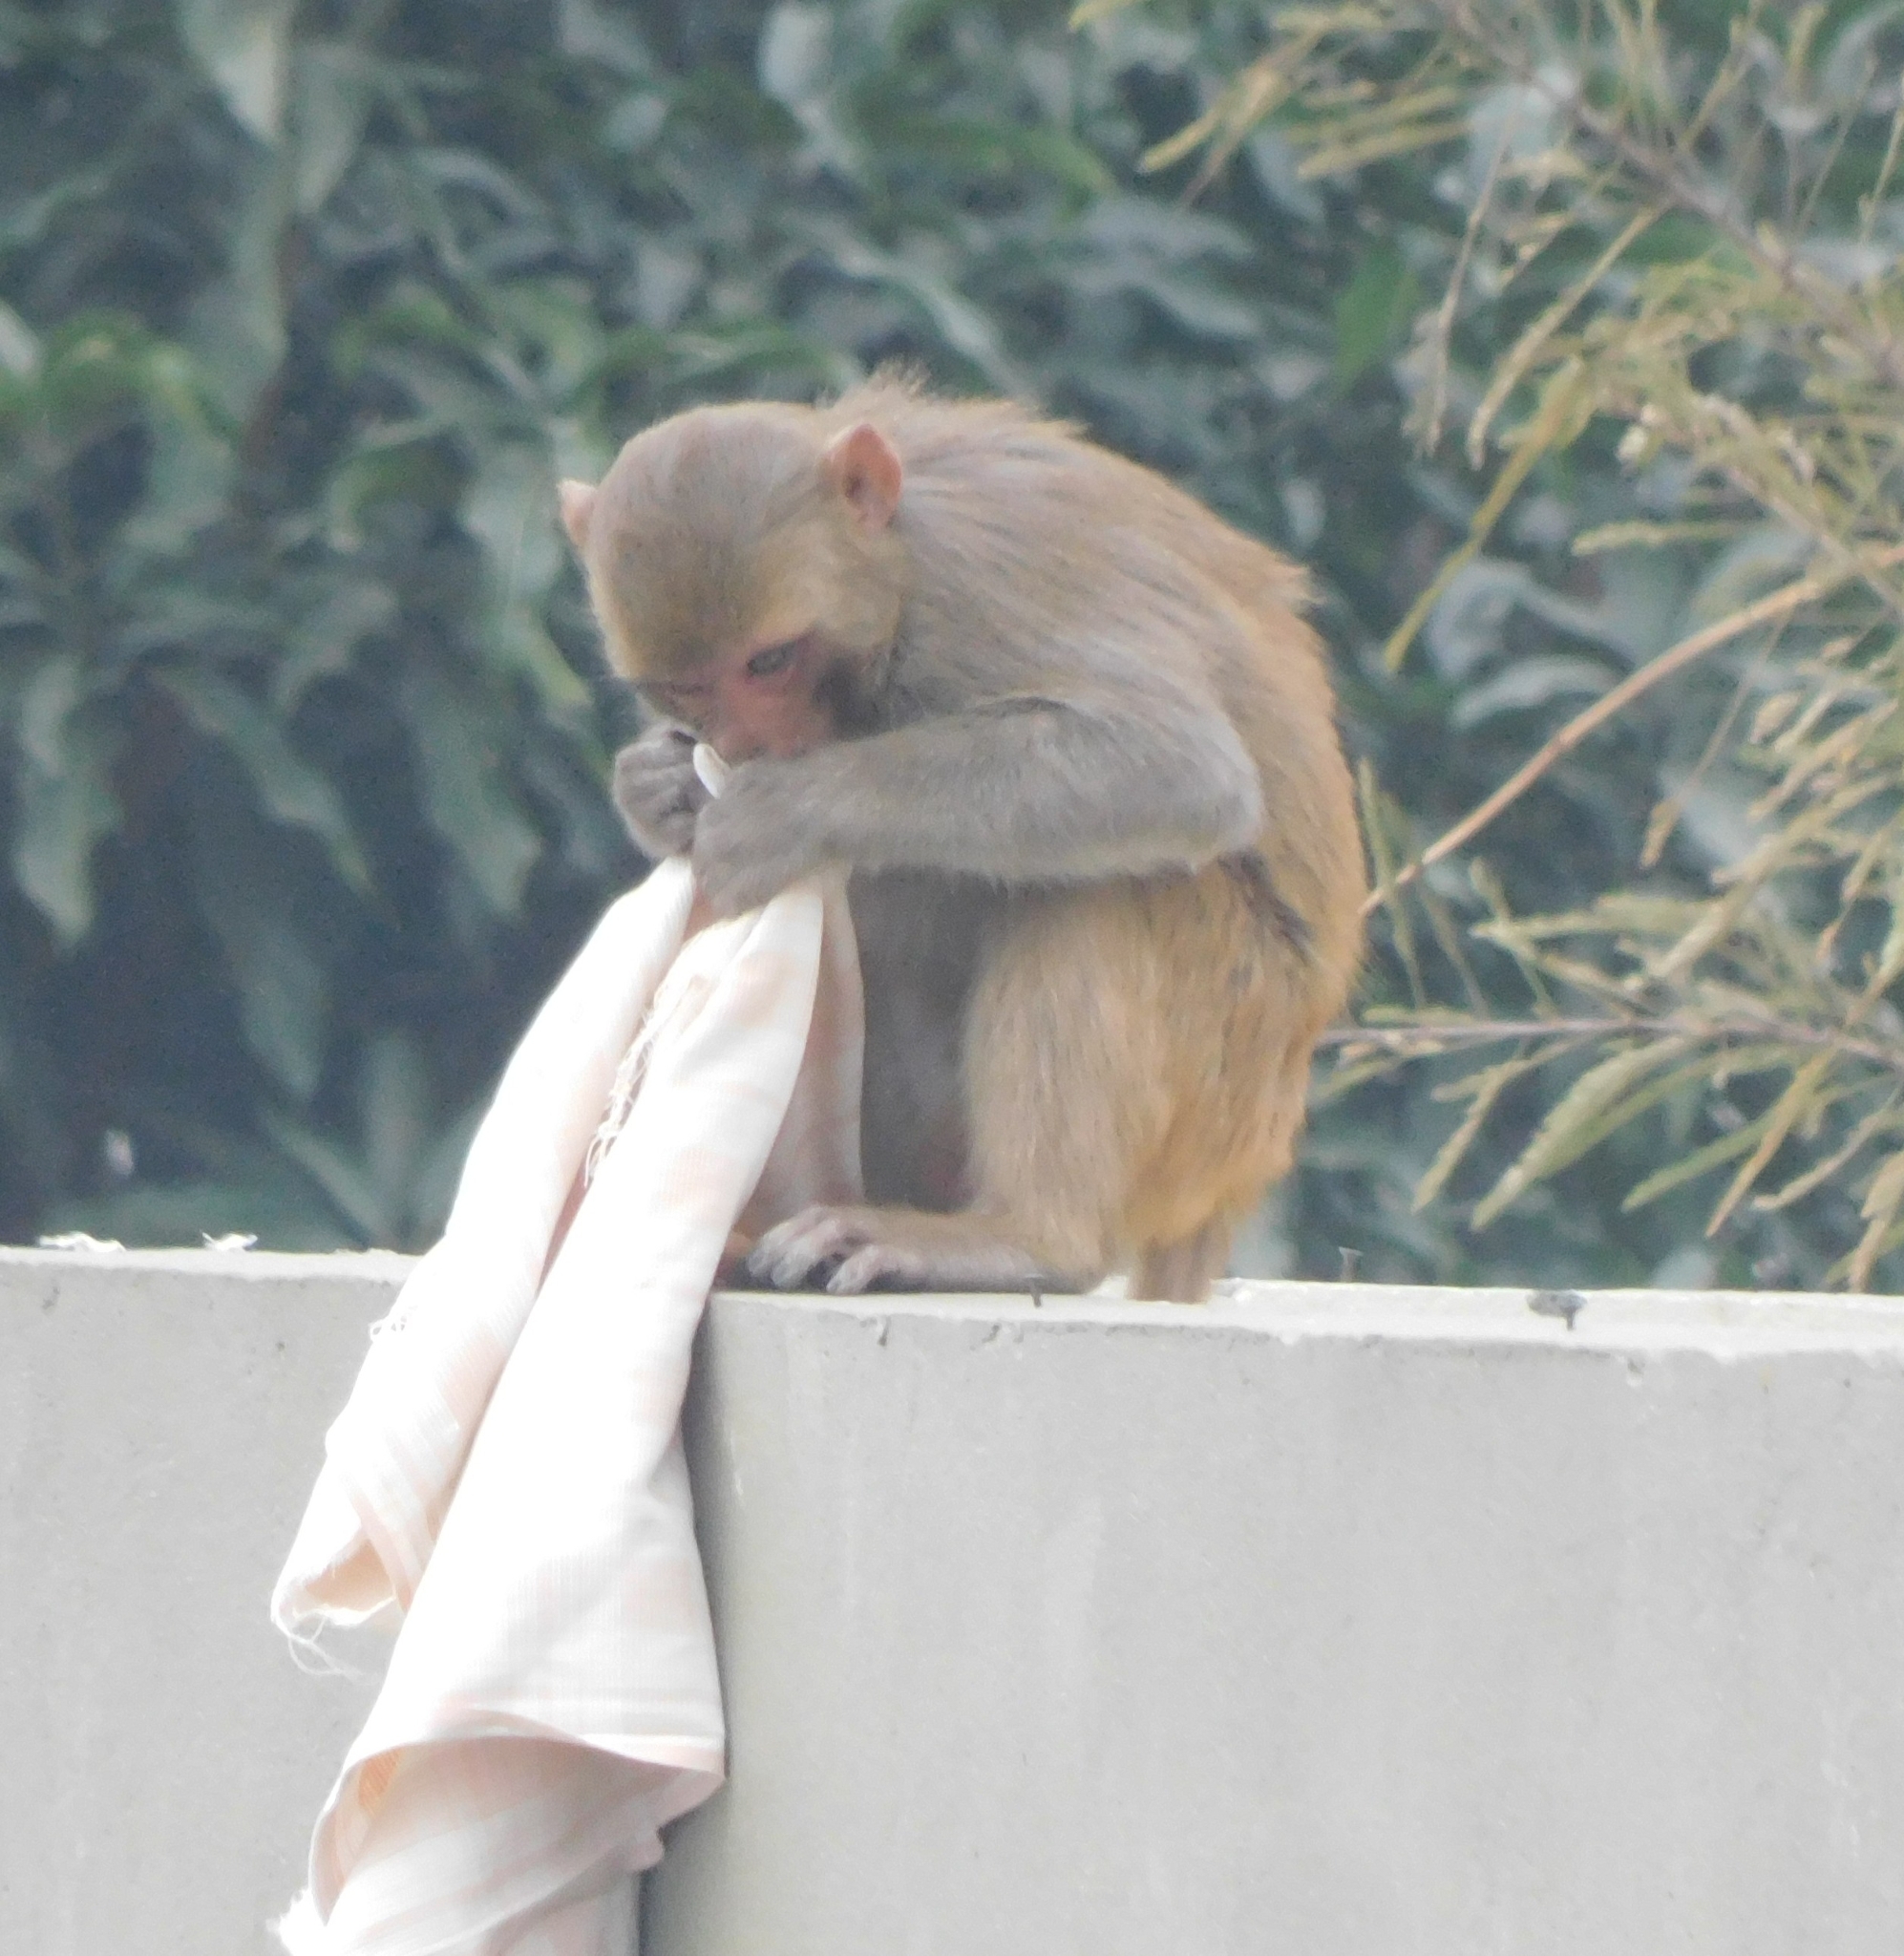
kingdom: Animalia
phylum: Chordata
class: Mammalia
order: Primates
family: Cercopithecidae
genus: Macaca
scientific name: Macaca mulatta
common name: Rhesus monkey
